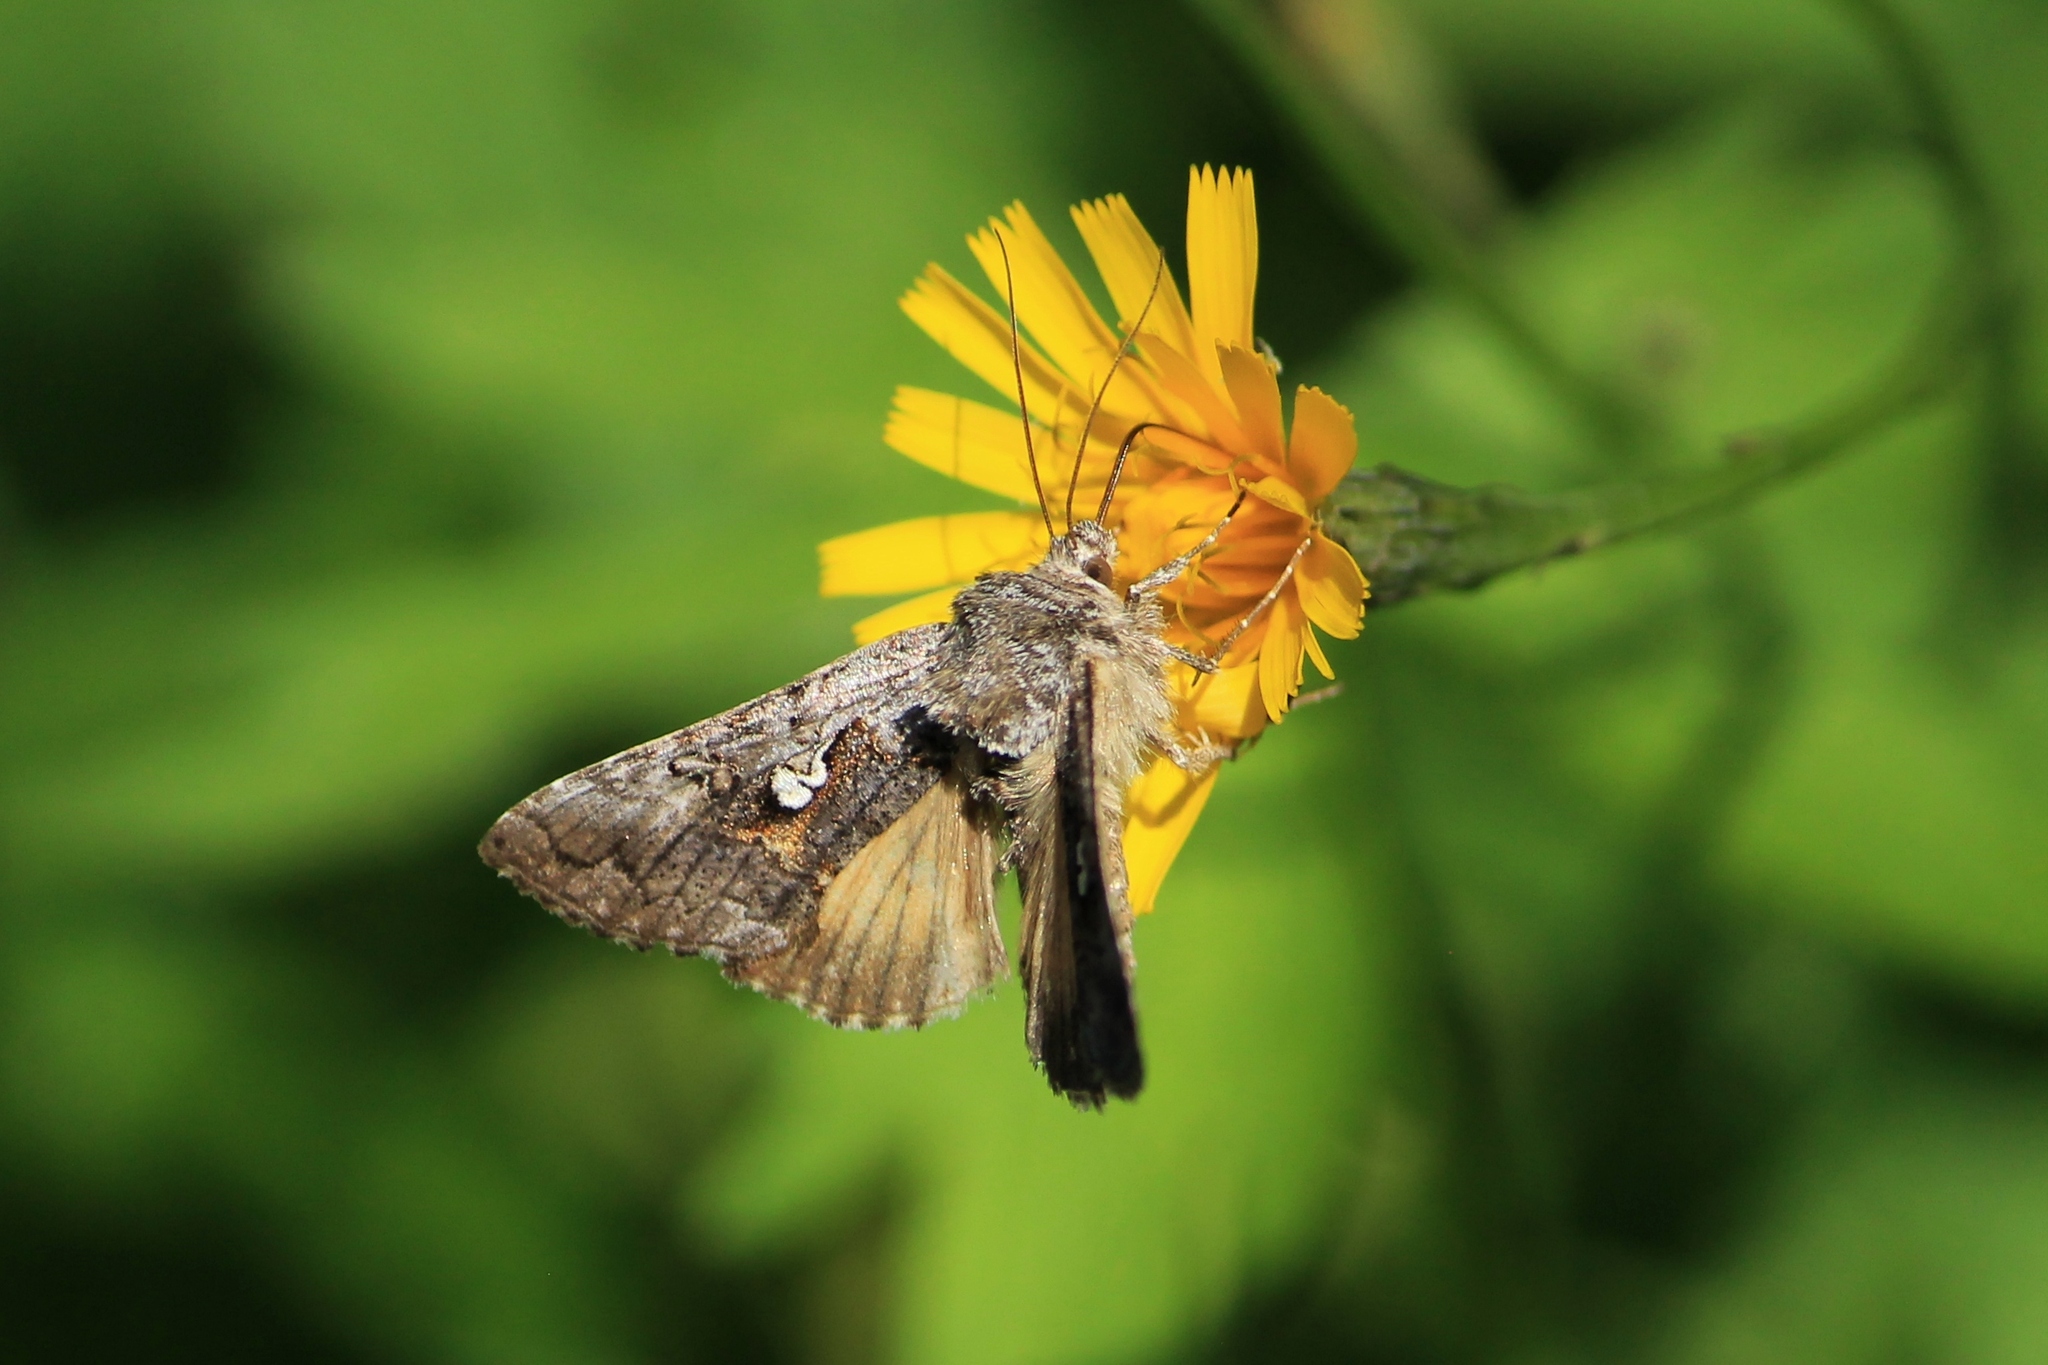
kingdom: Animalia
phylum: Arthropoda
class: Insecta
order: Lepidoptera
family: Noctuidae
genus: Syngrapha
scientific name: Syngrapha interrogationis
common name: Scarce silver y
